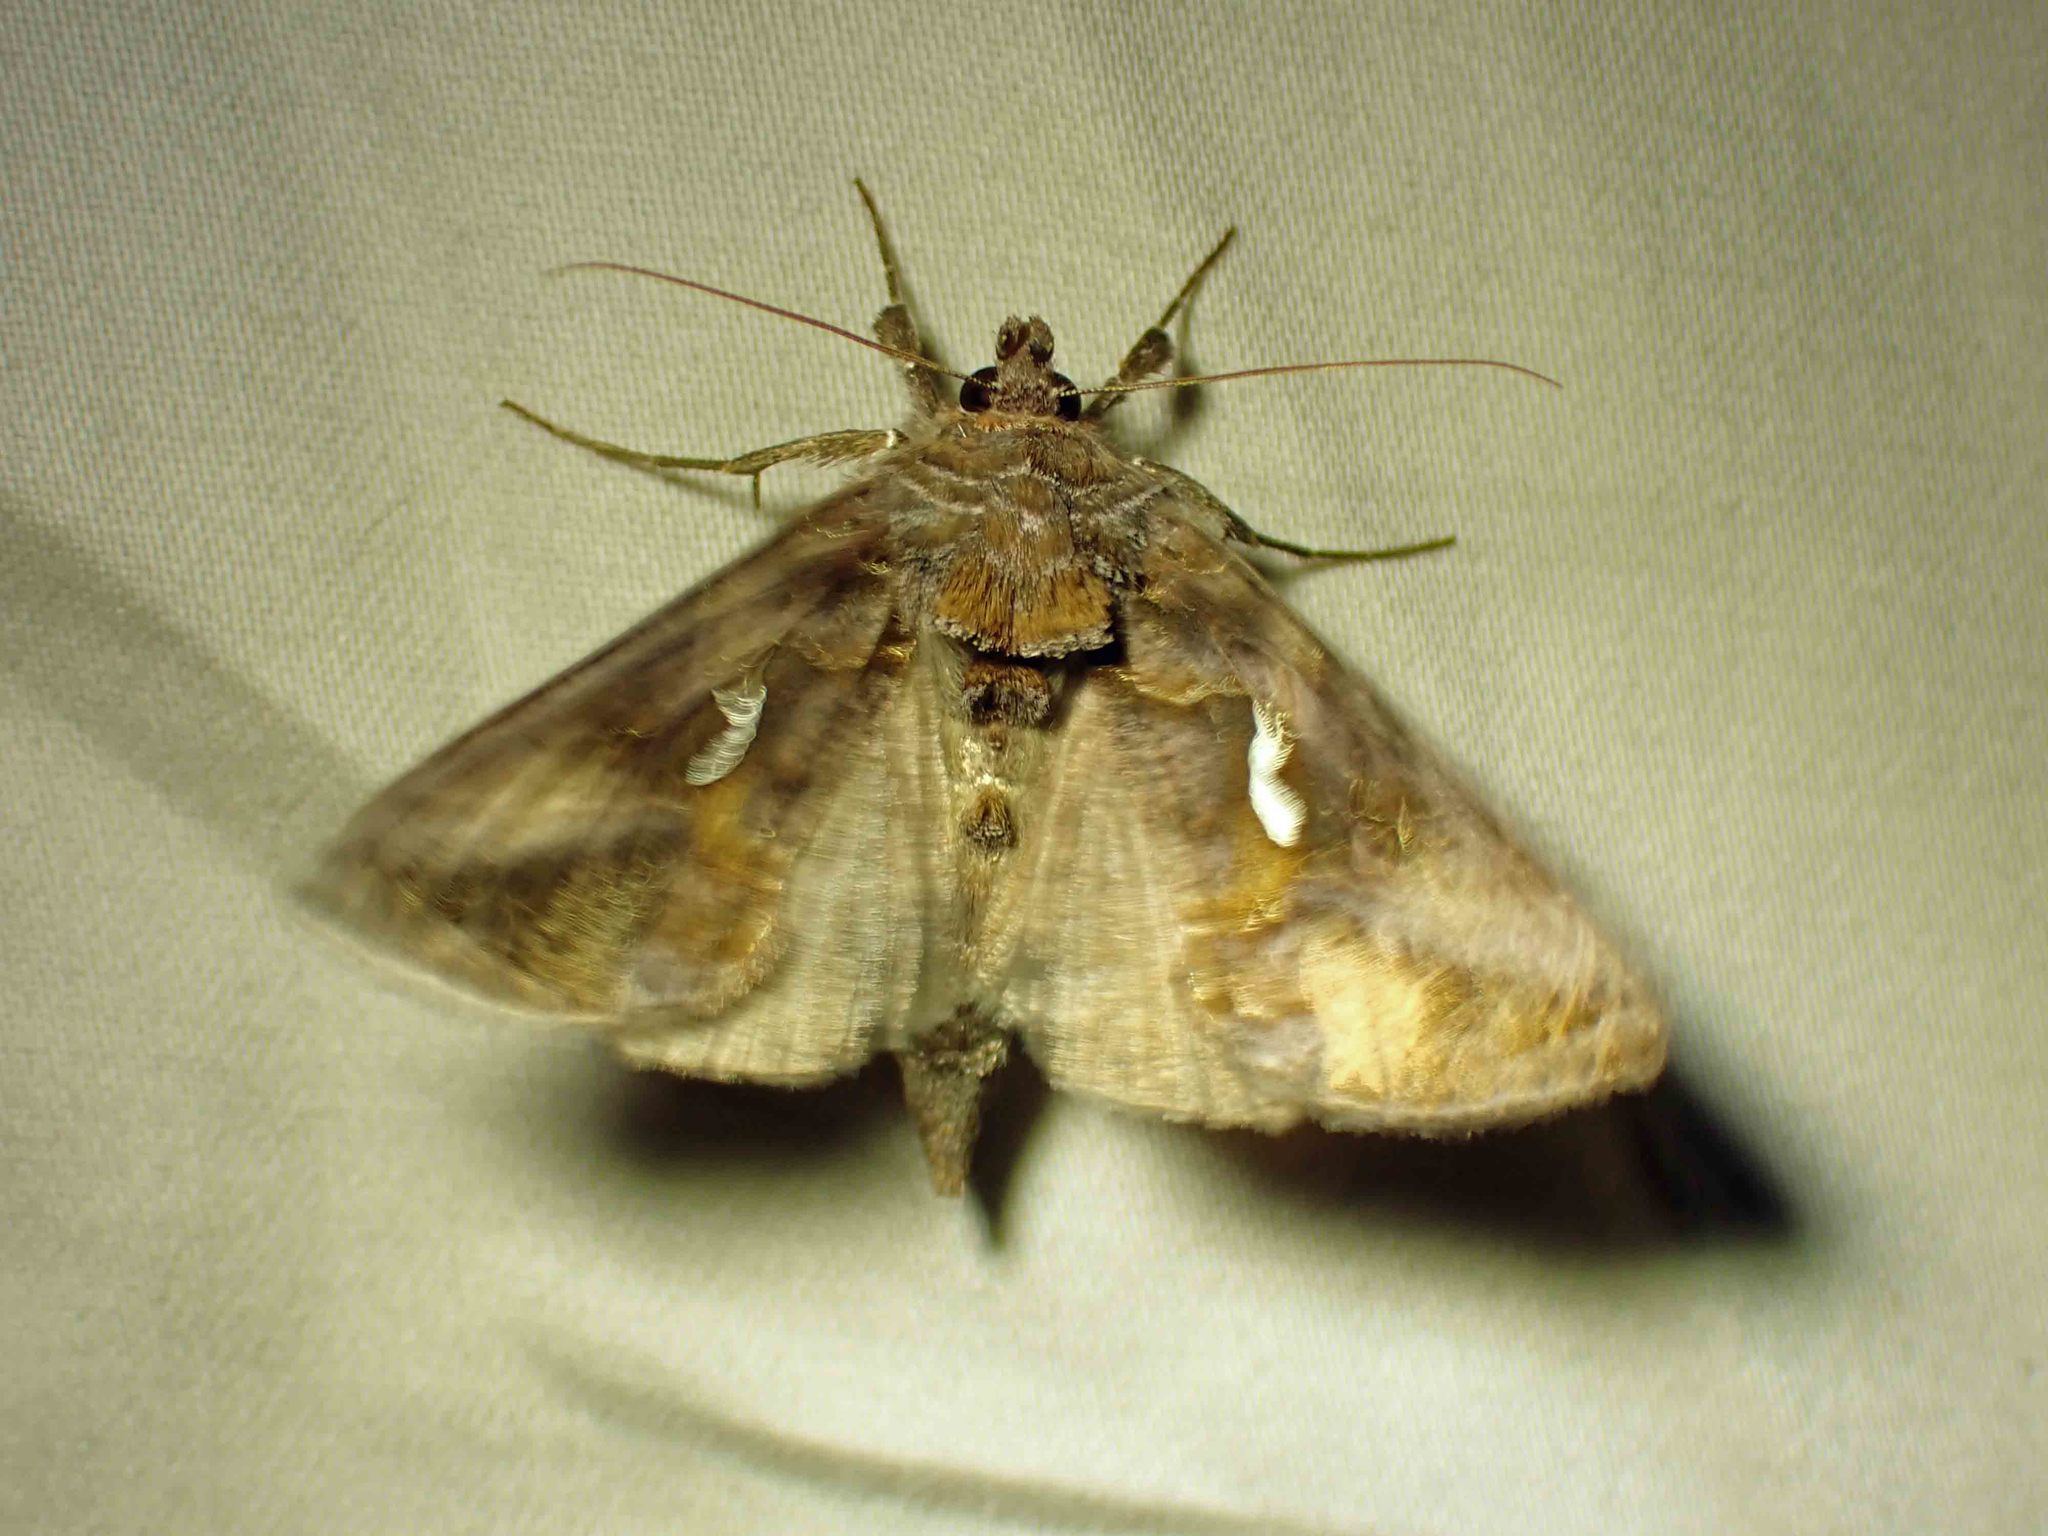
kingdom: Animalia
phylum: Arthropoda
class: Insecta
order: Lepidoptera
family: Noctuidae
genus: Autographa
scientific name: Autographa precationis
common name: Common looper moth
